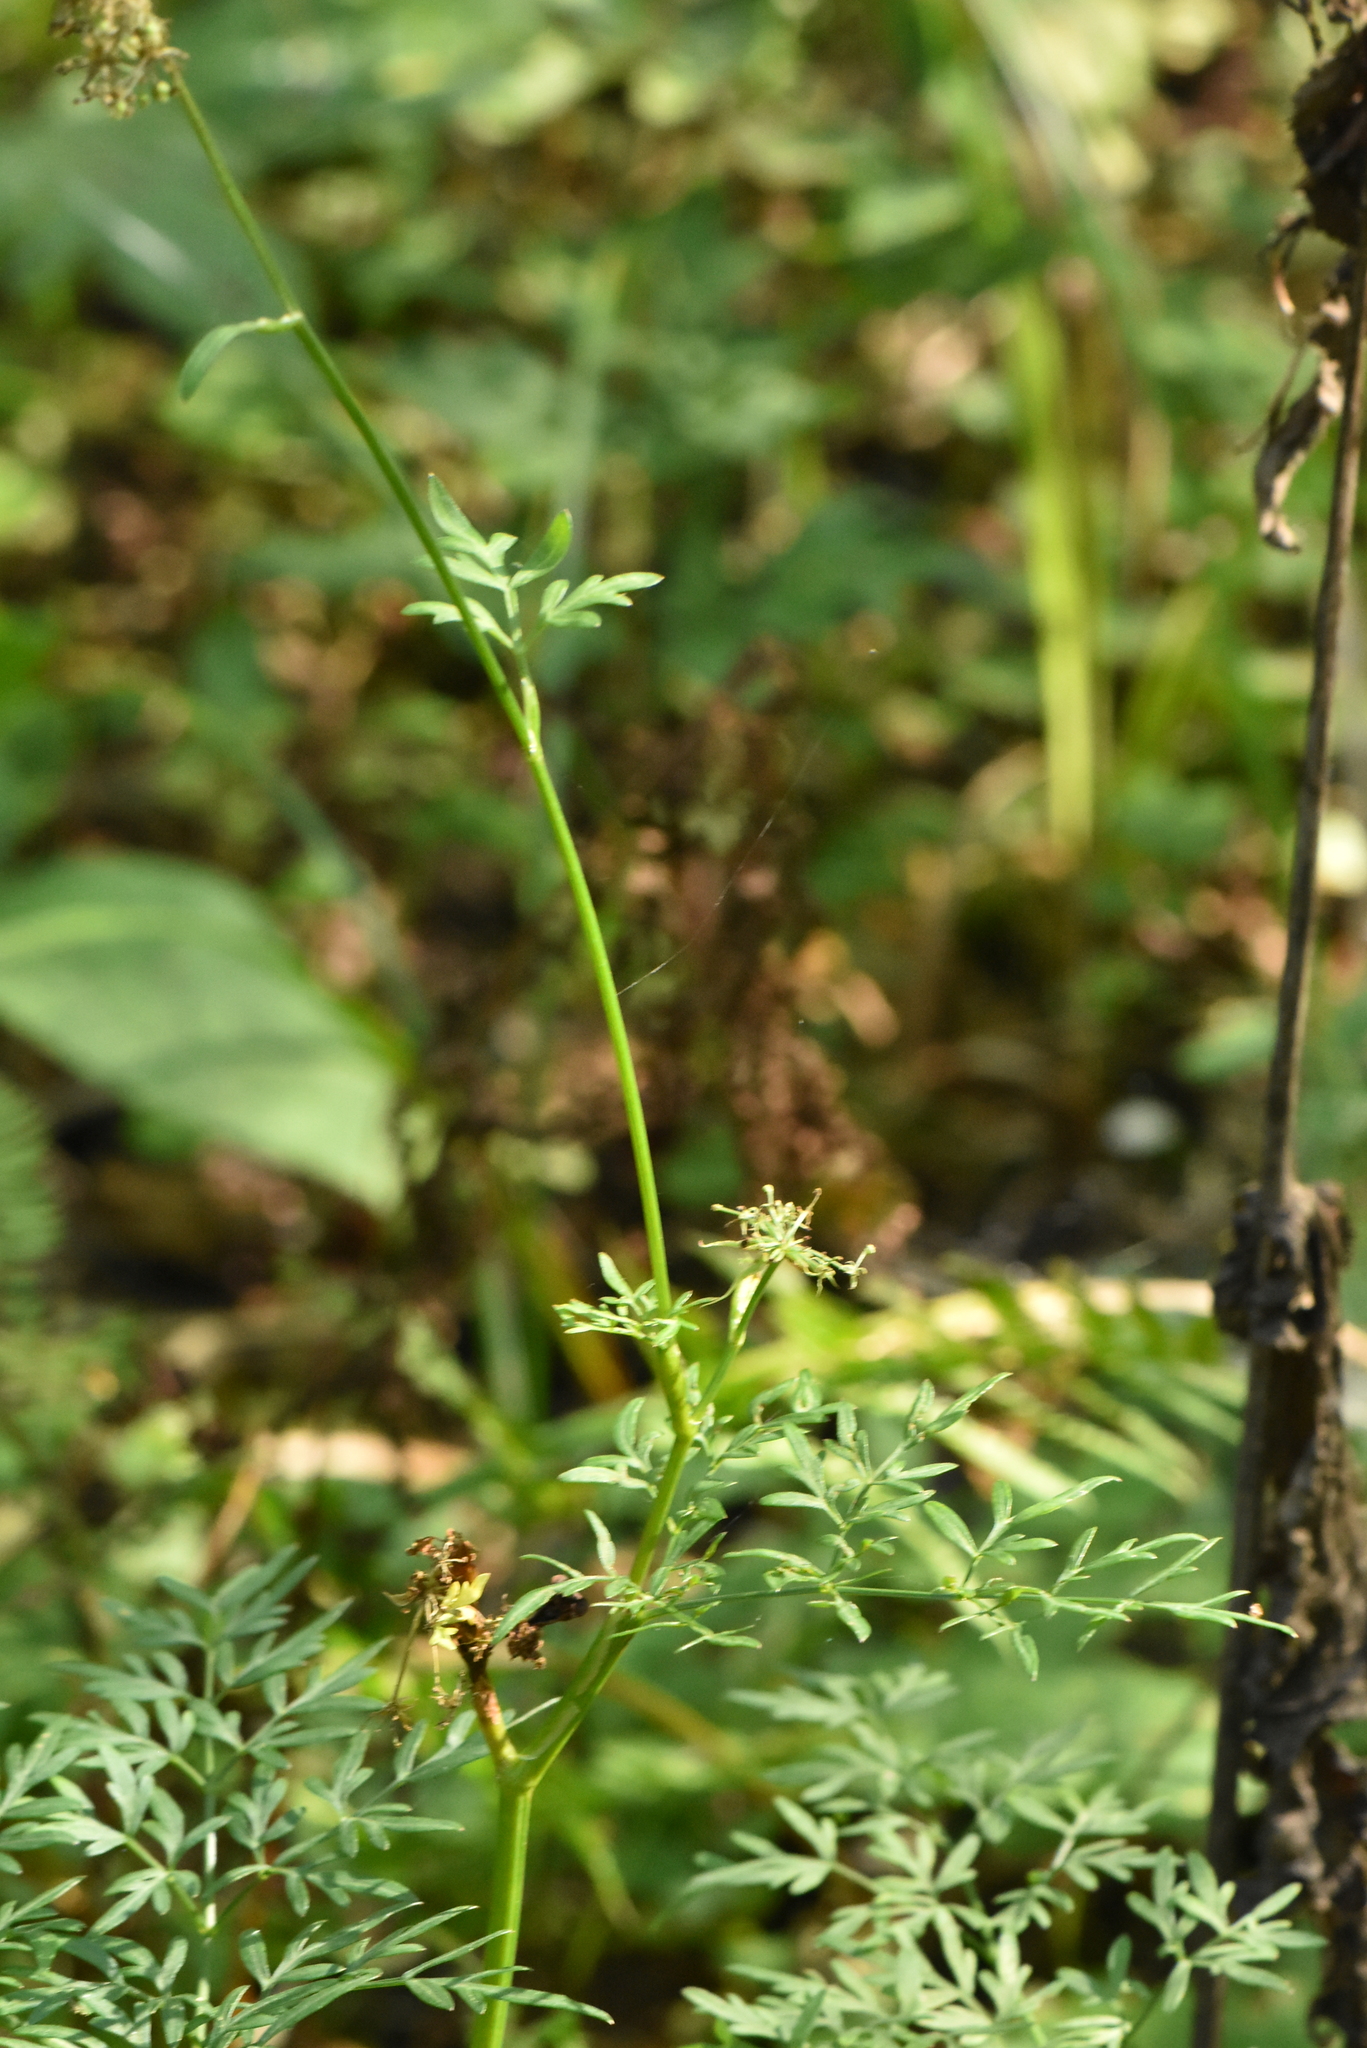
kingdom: Plantae
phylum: Tracheophyta
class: Magnoliopsida
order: Apiales
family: Apiaceae
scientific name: Apiaceae
